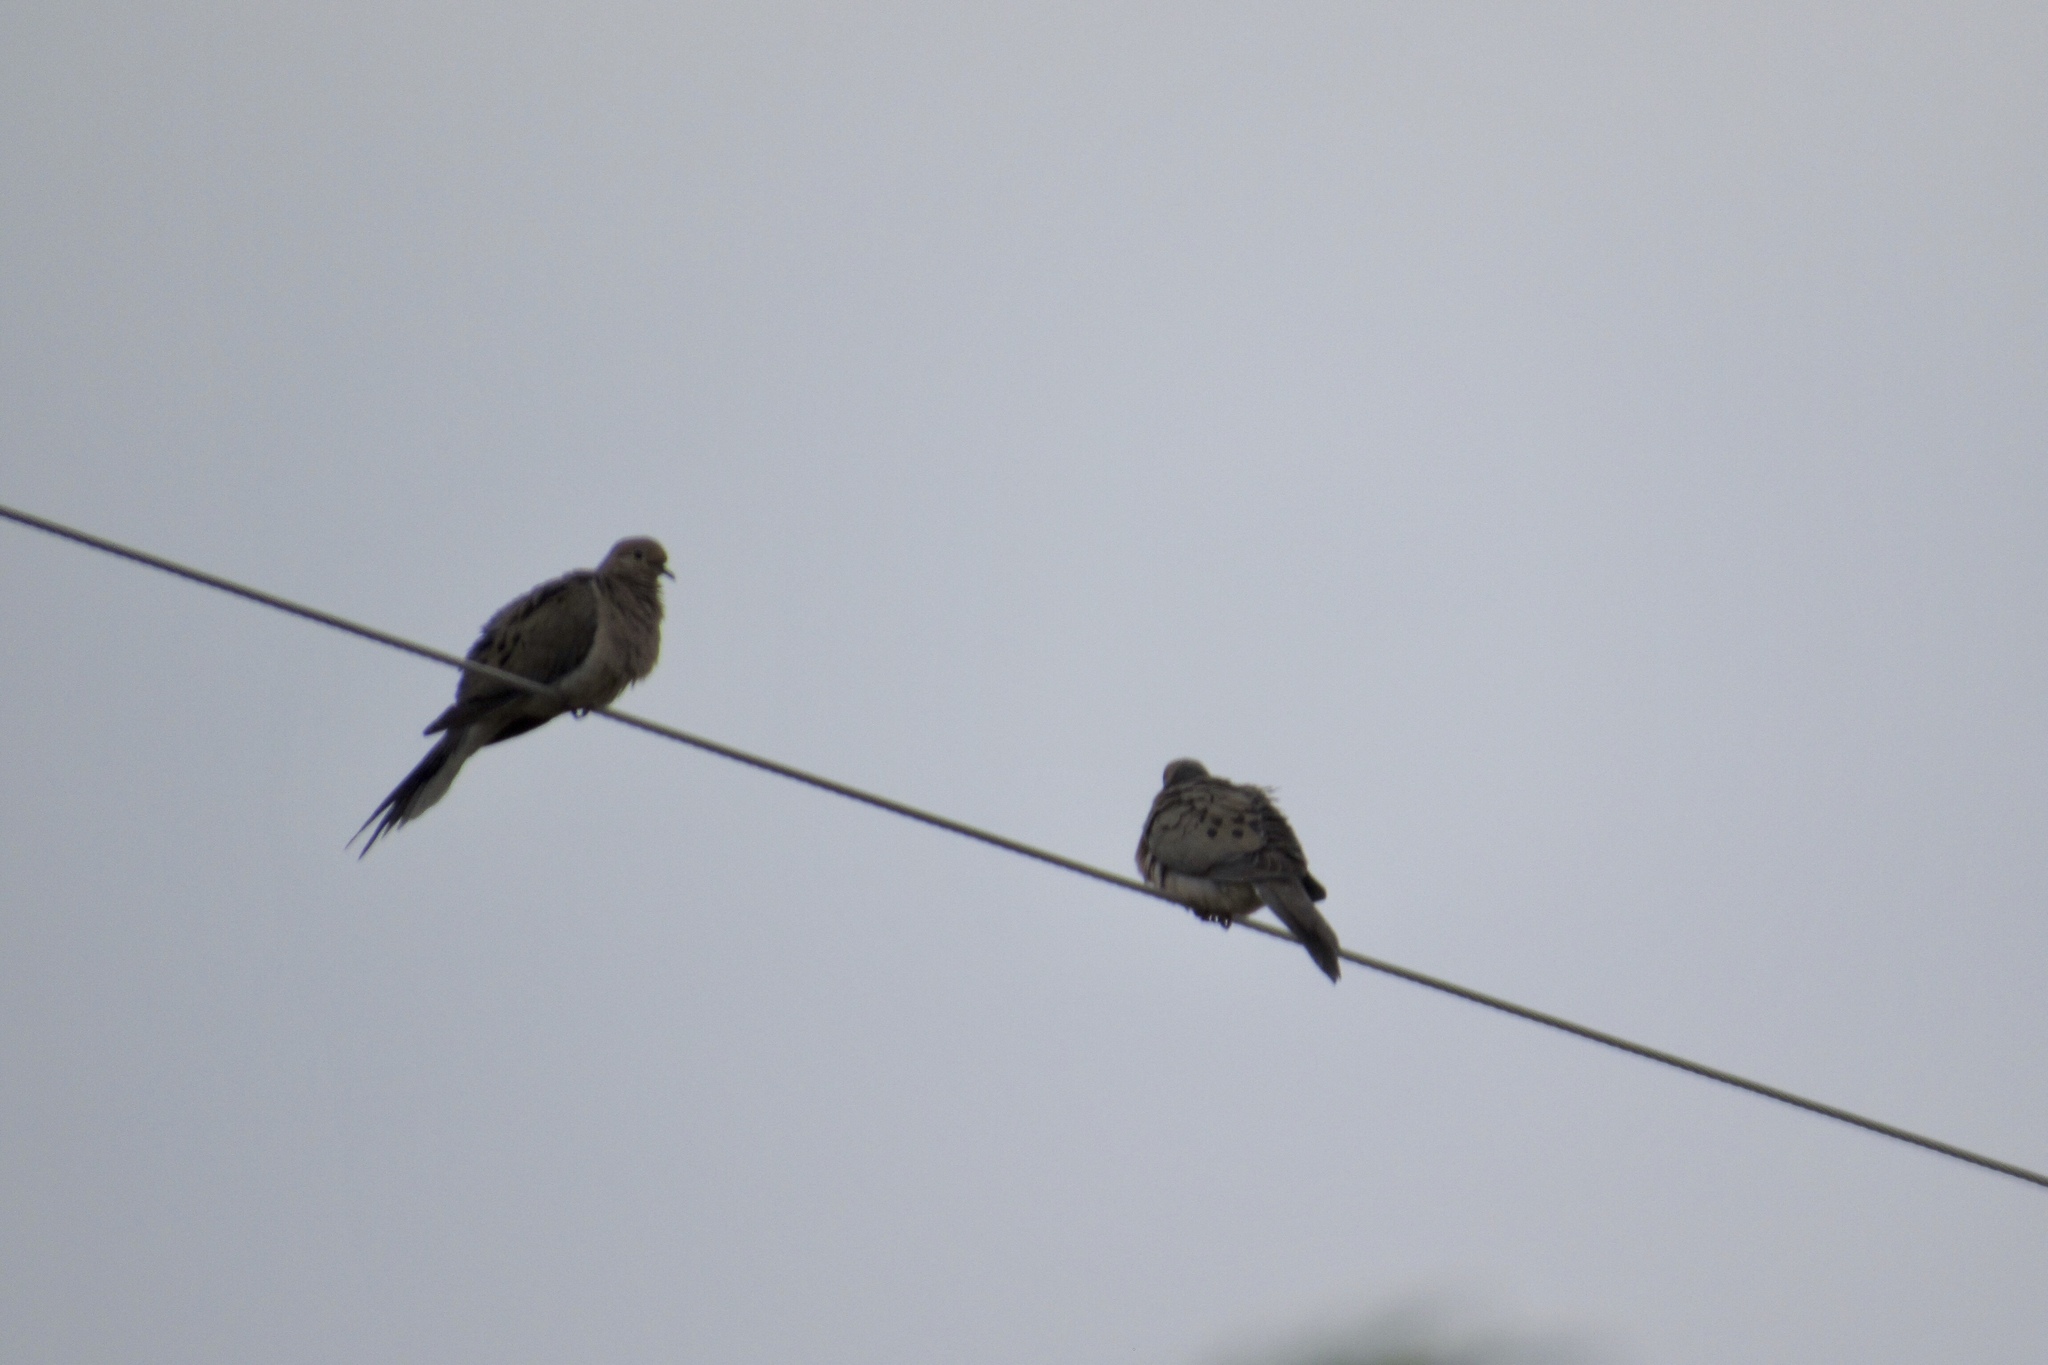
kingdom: Animalia
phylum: Chordata
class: Aves
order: Columbiformes
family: Columbidae
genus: Zenaida
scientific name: Zenaida macroura
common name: Mourning dove
